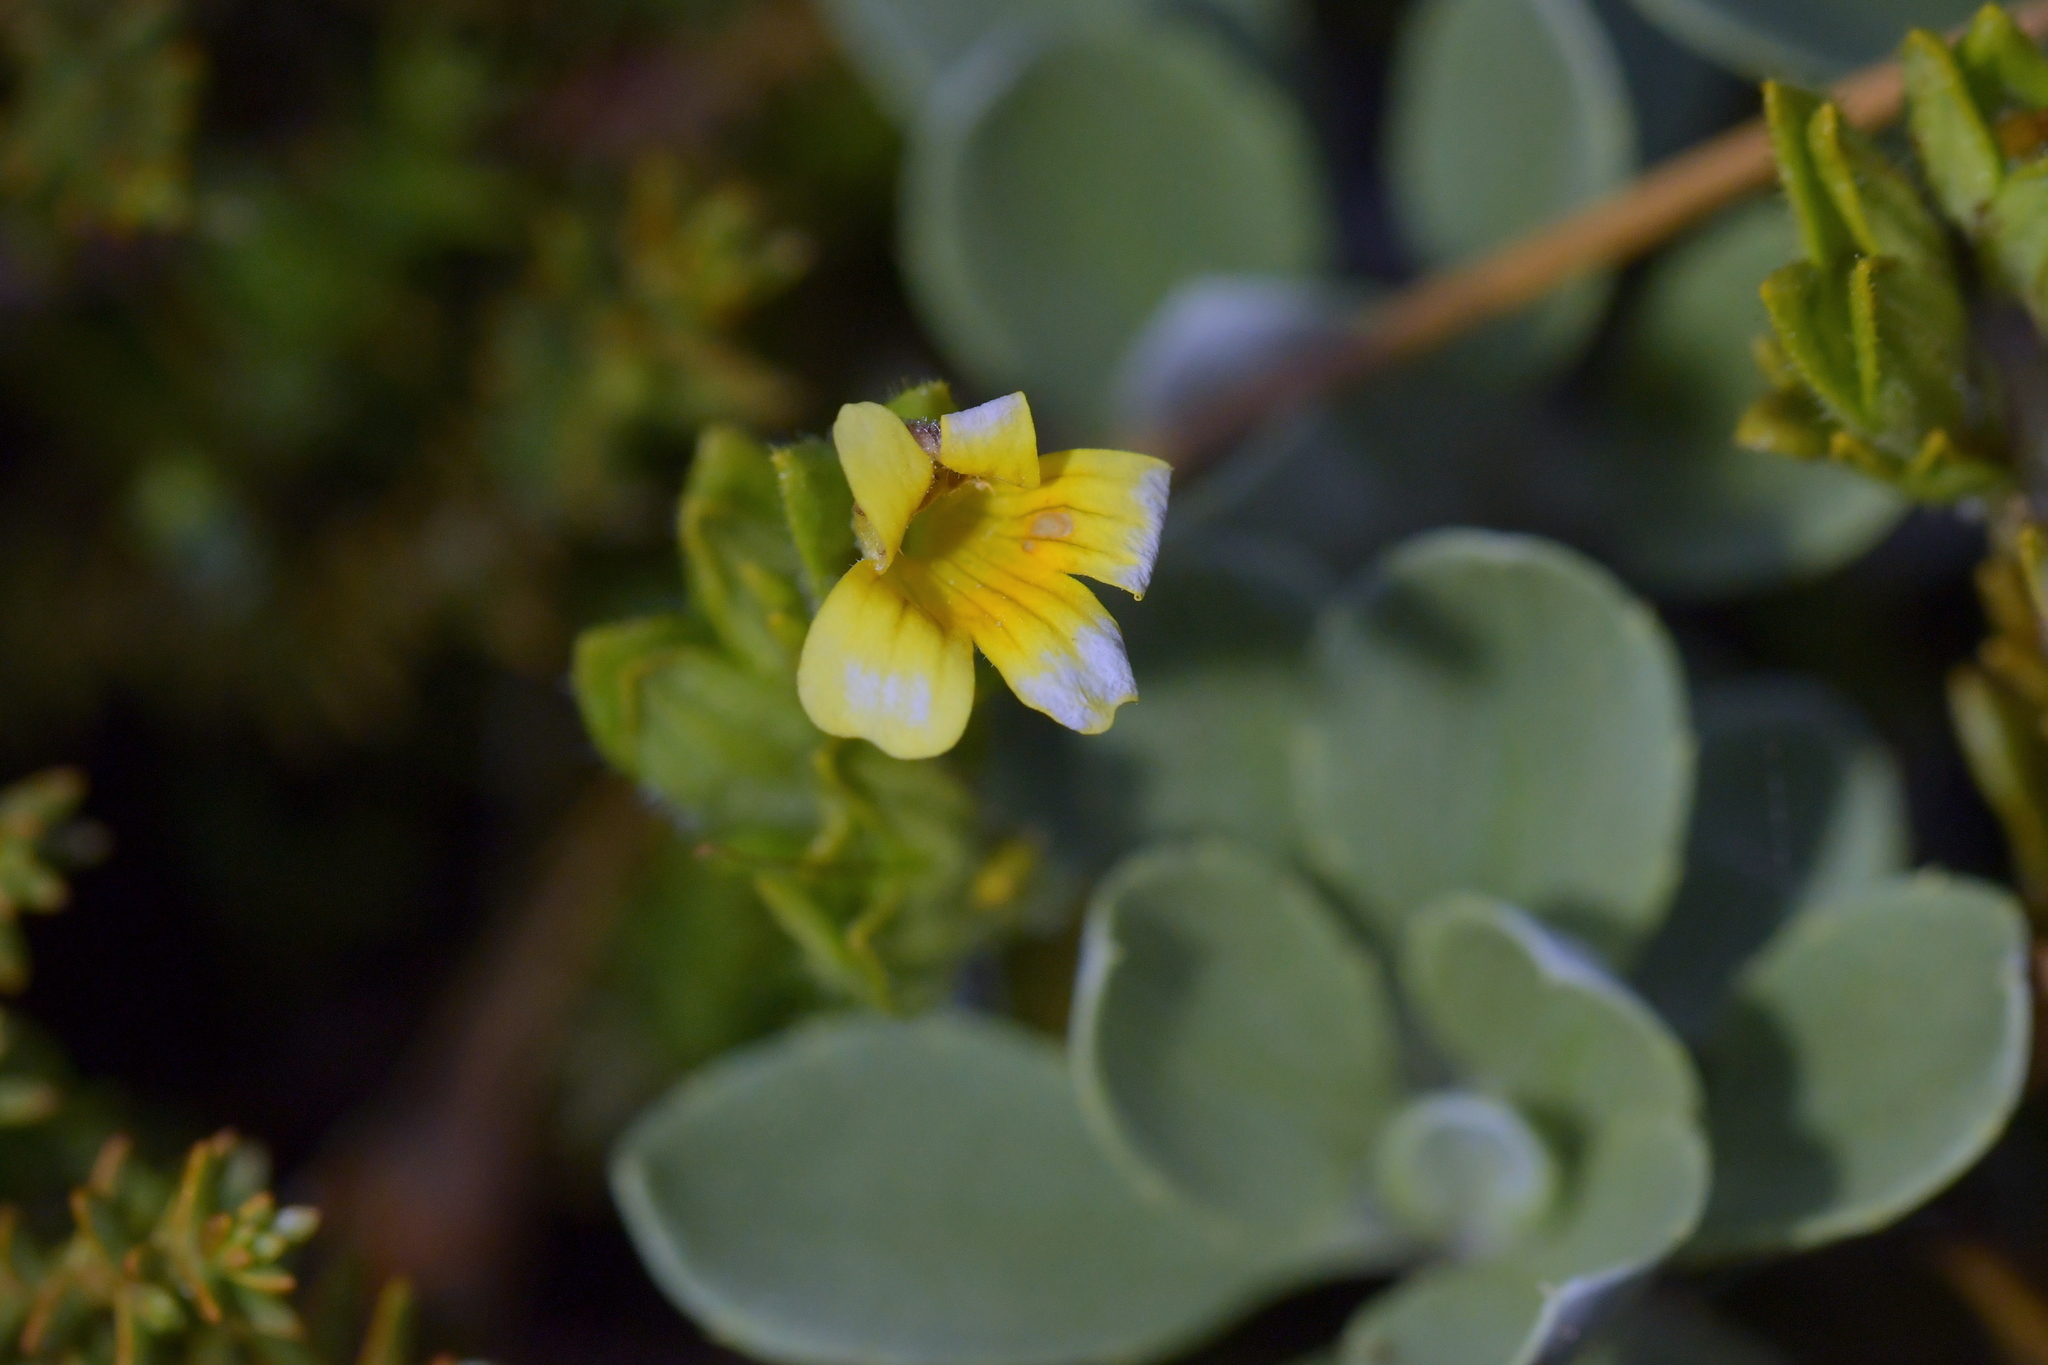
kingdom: Plantae
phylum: Tracheophyta
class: Magnoliopsida
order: Lamiales
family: Orobanchaceae
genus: Euphrasia
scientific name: Euphrasia cockayneana
